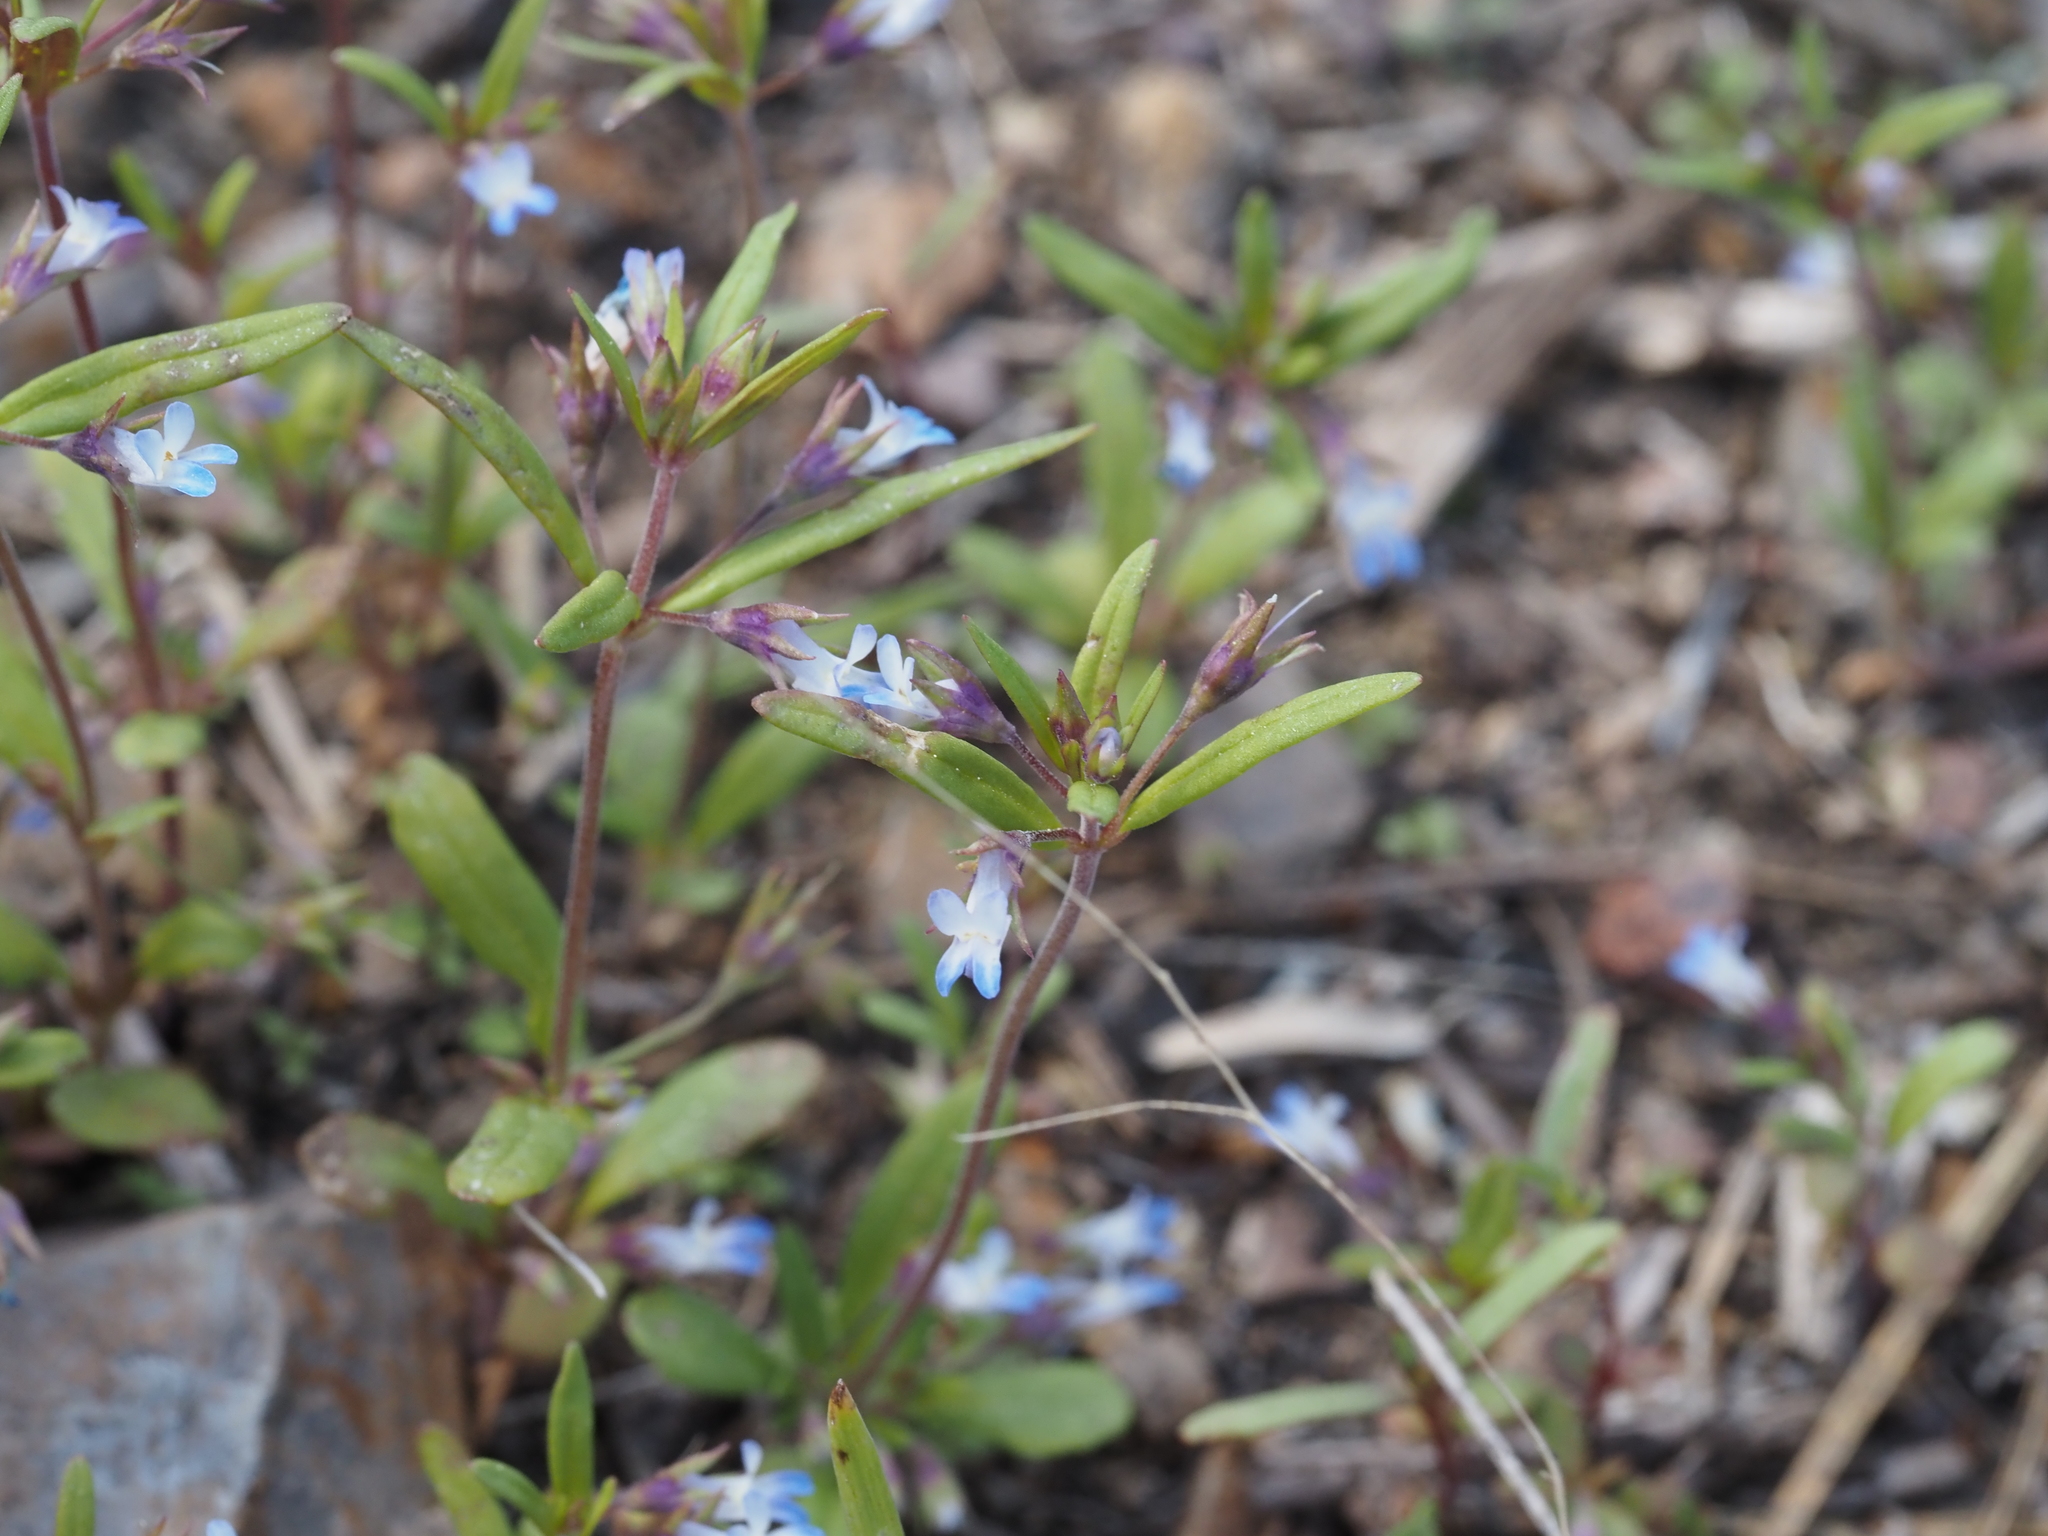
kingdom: Plantae
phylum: Tracheophyta
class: Magnoliopsida
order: Lamiales
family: Plantaginaceae
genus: Collinsia
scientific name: Collinsia parviflora
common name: Blue-lips
